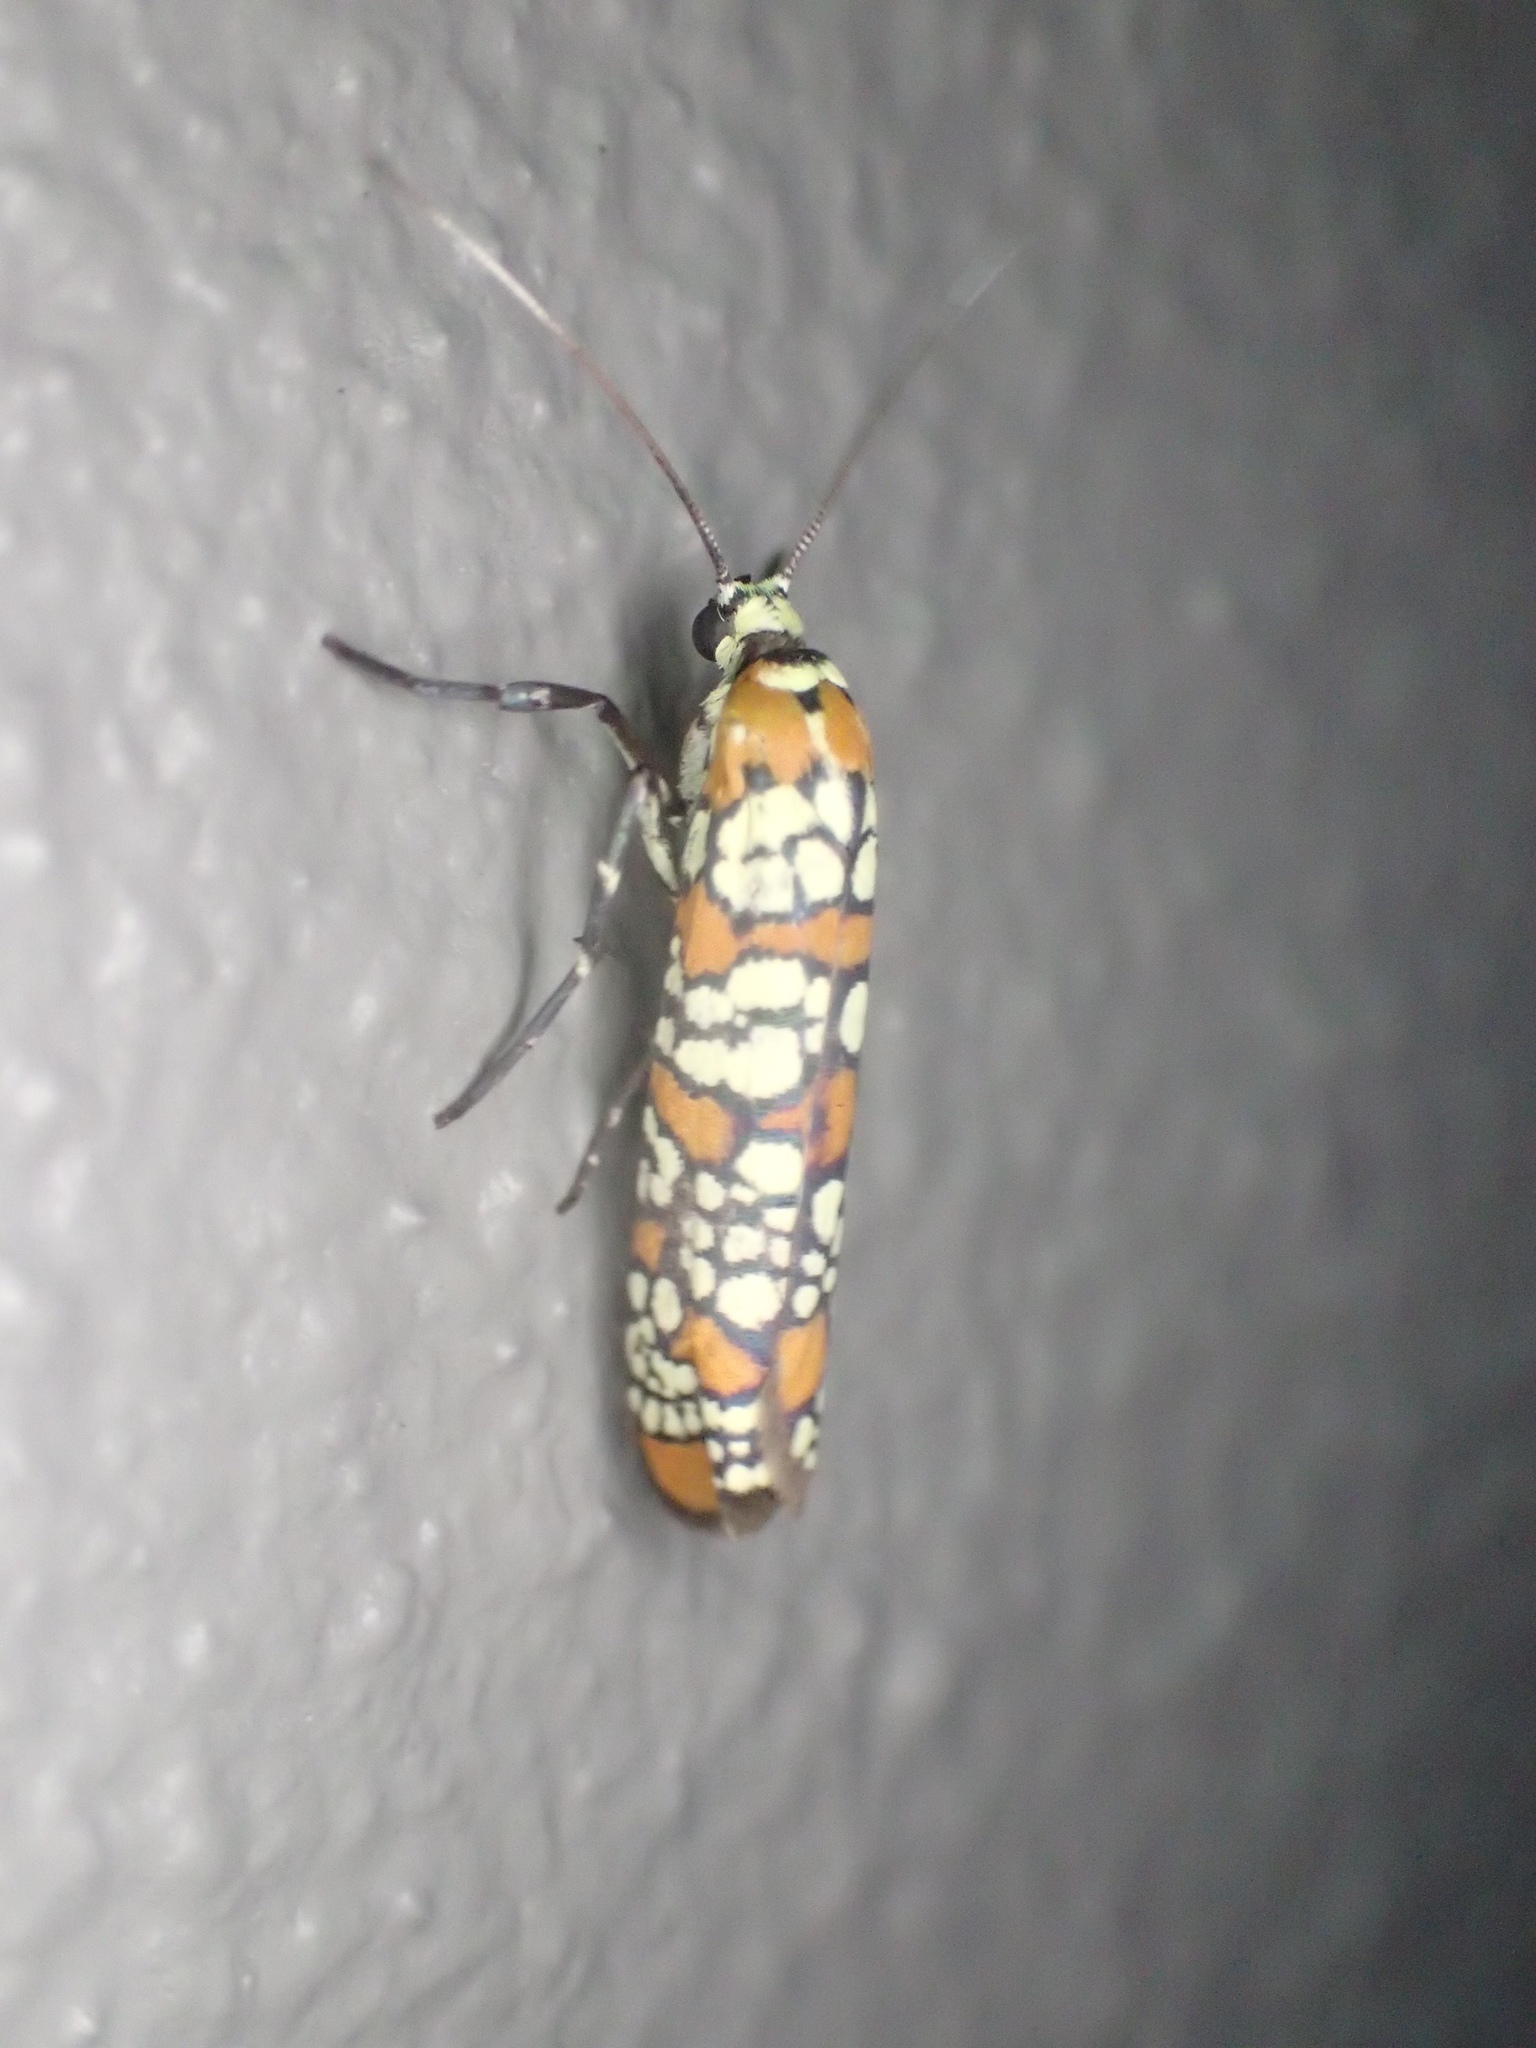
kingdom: Animalia
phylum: Arthropoda
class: Insecta
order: Lepidoptera
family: Attevidae
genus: Atteva
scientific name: Atteva punctella
